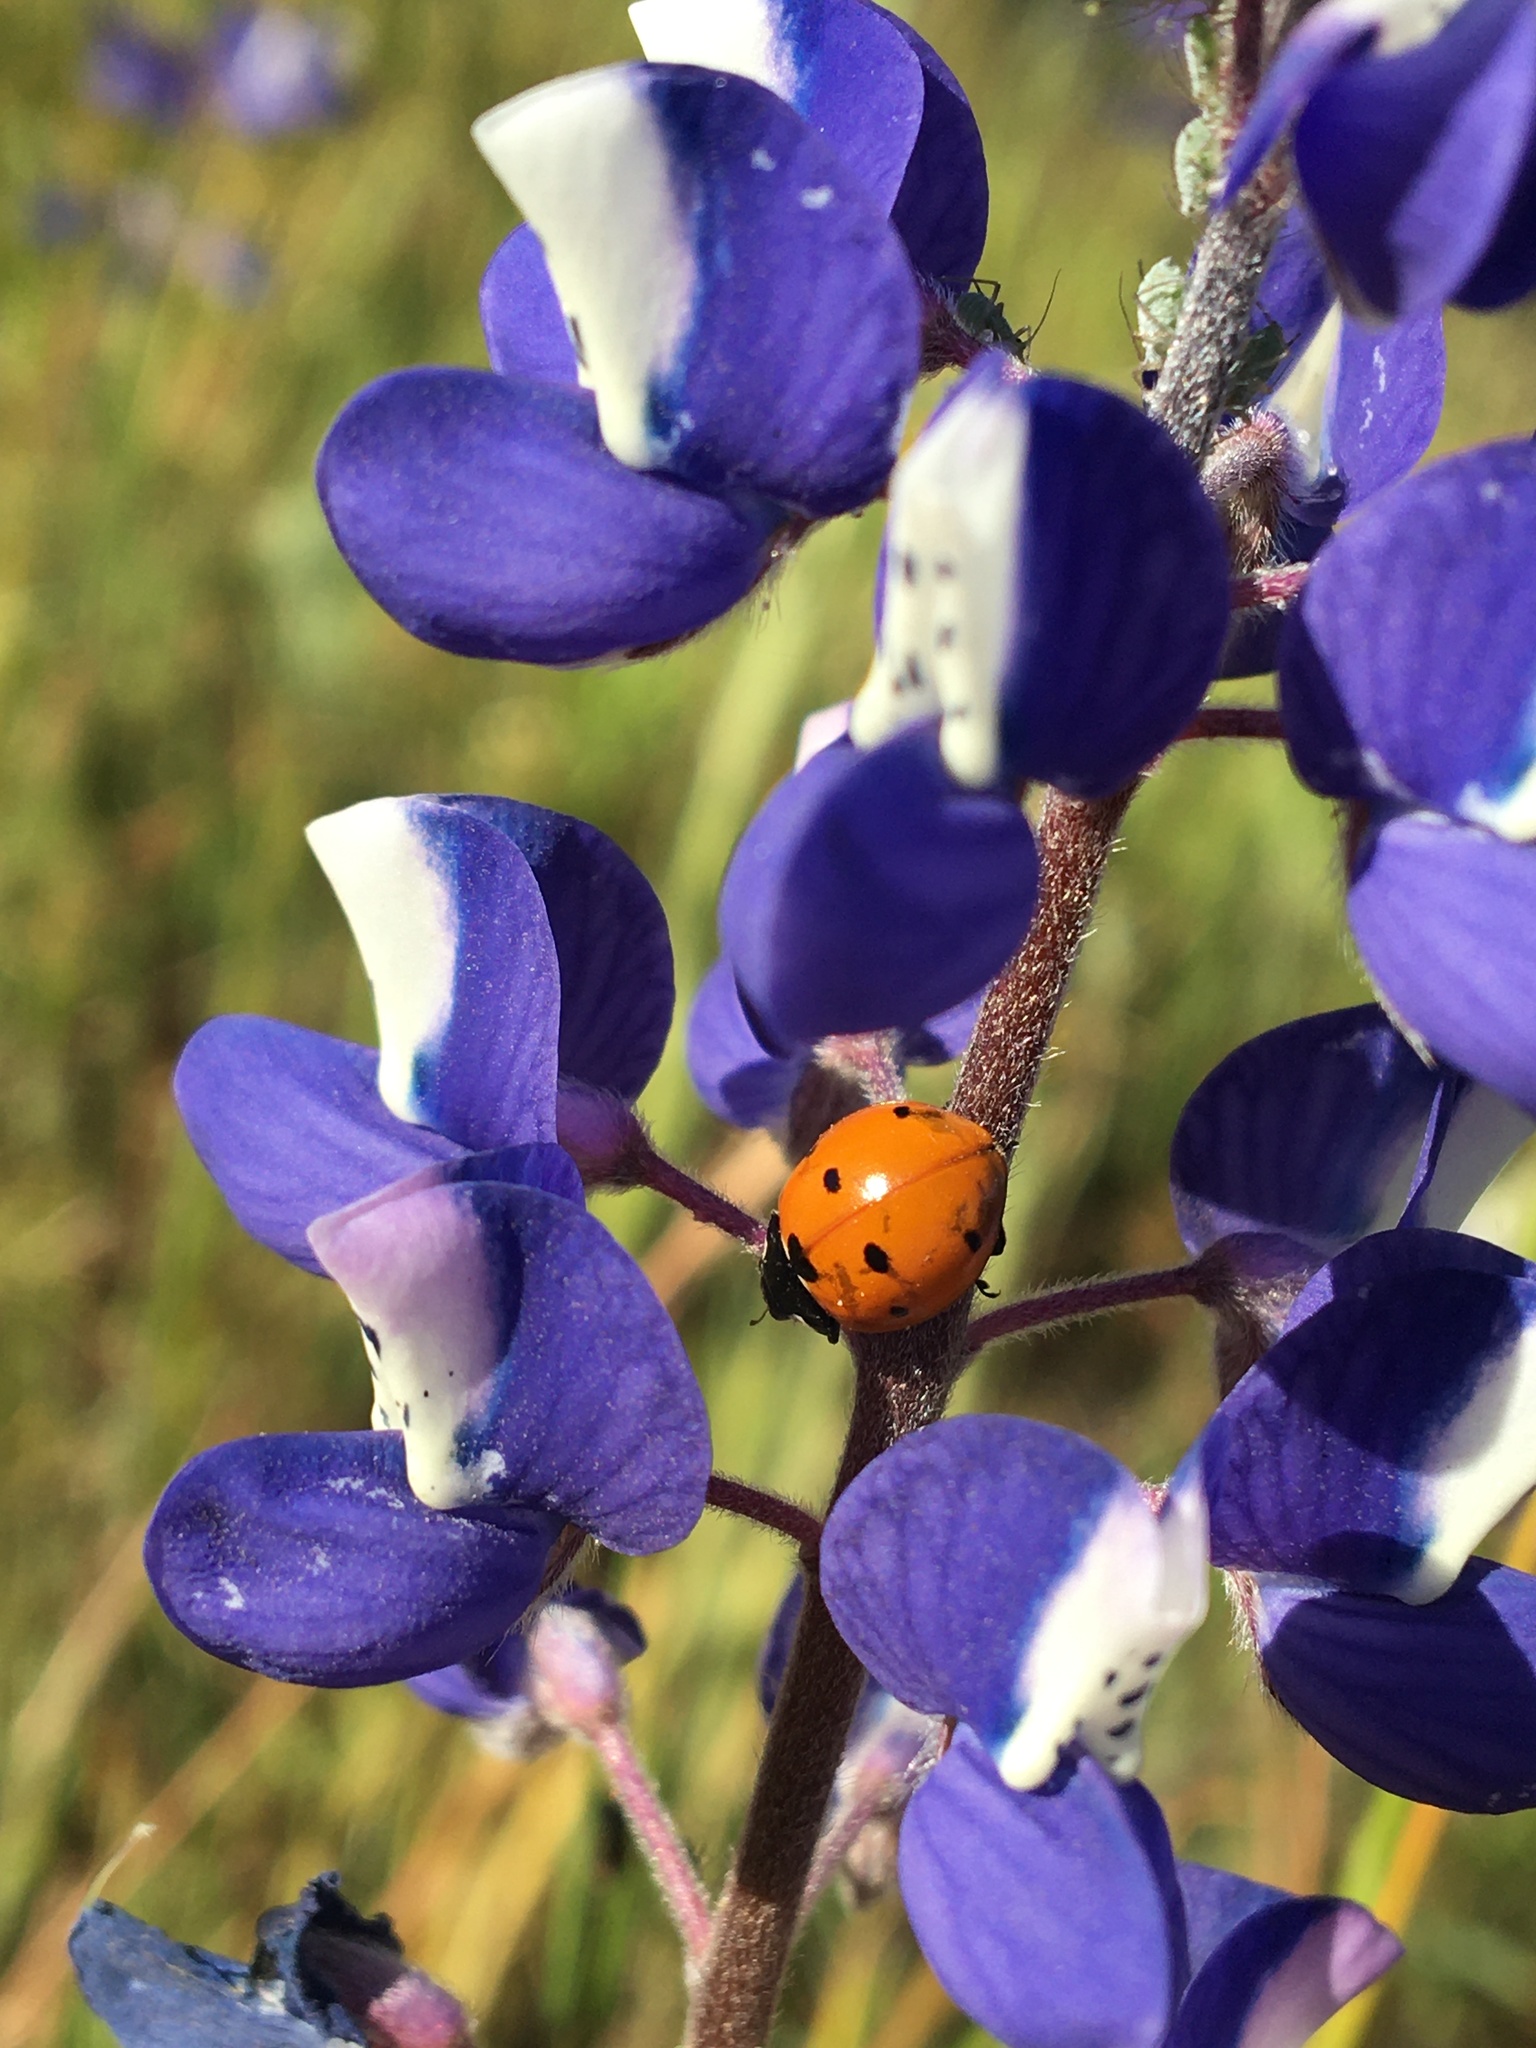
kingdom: Animalia
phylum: Arthropoda
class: Insecta
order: Coleoptera
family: Coccinellidae
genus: Coccinella
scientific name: Coccinella septempunctata
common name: Sevenspotted lady beetle
